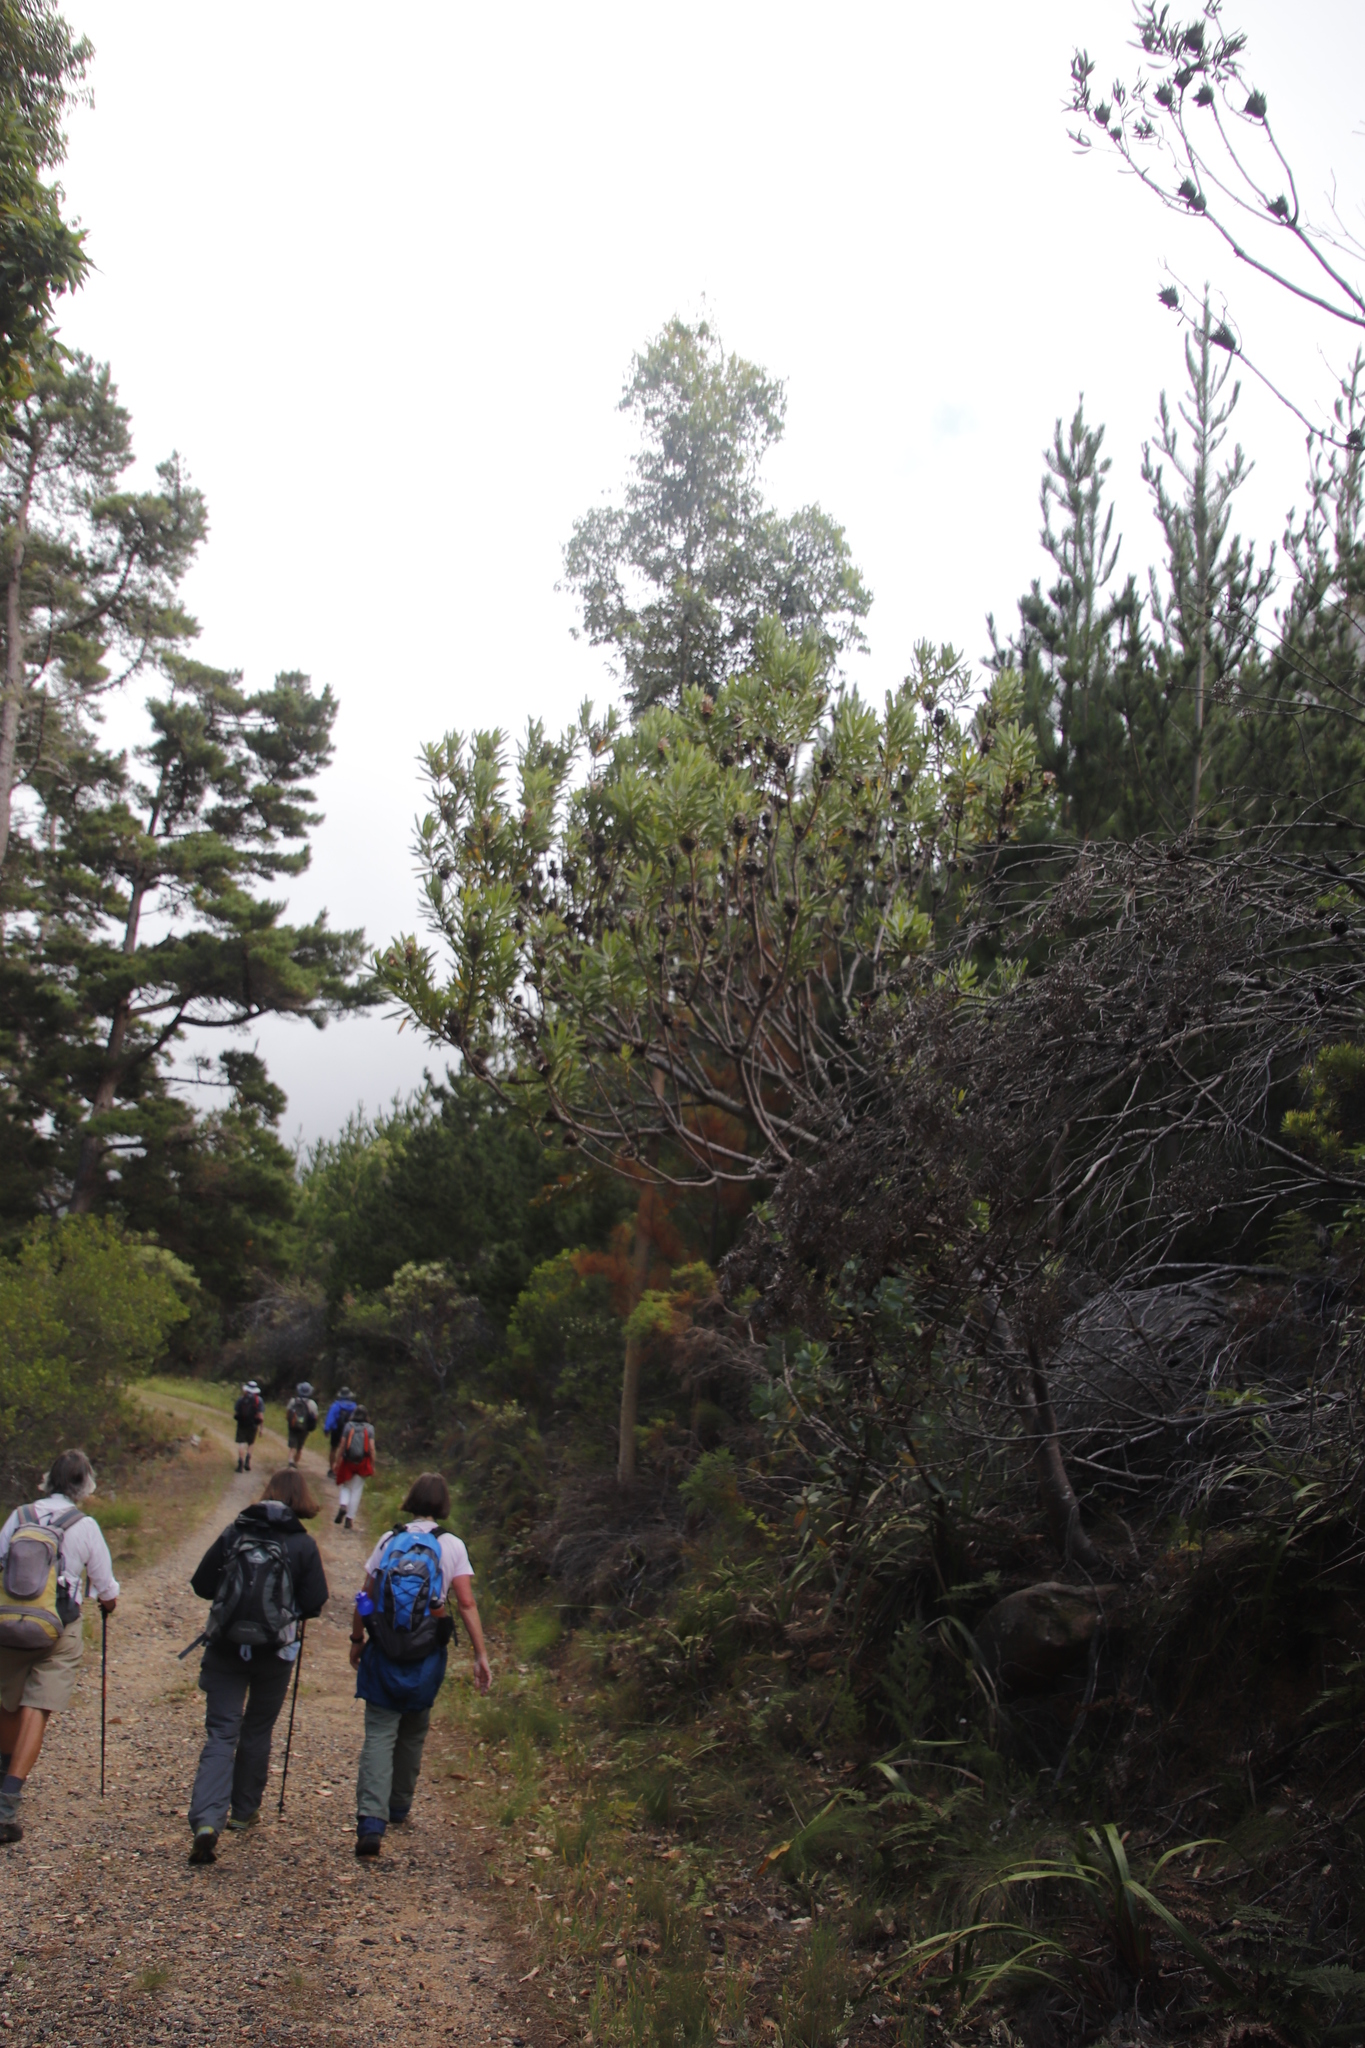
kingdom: Plantae
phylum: Tracheophyta
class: Magnoliopsida
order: Proteales
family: Proteaceae
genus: Protea
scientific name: Protea lepidocarpodendron
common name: Black-bearded protea
